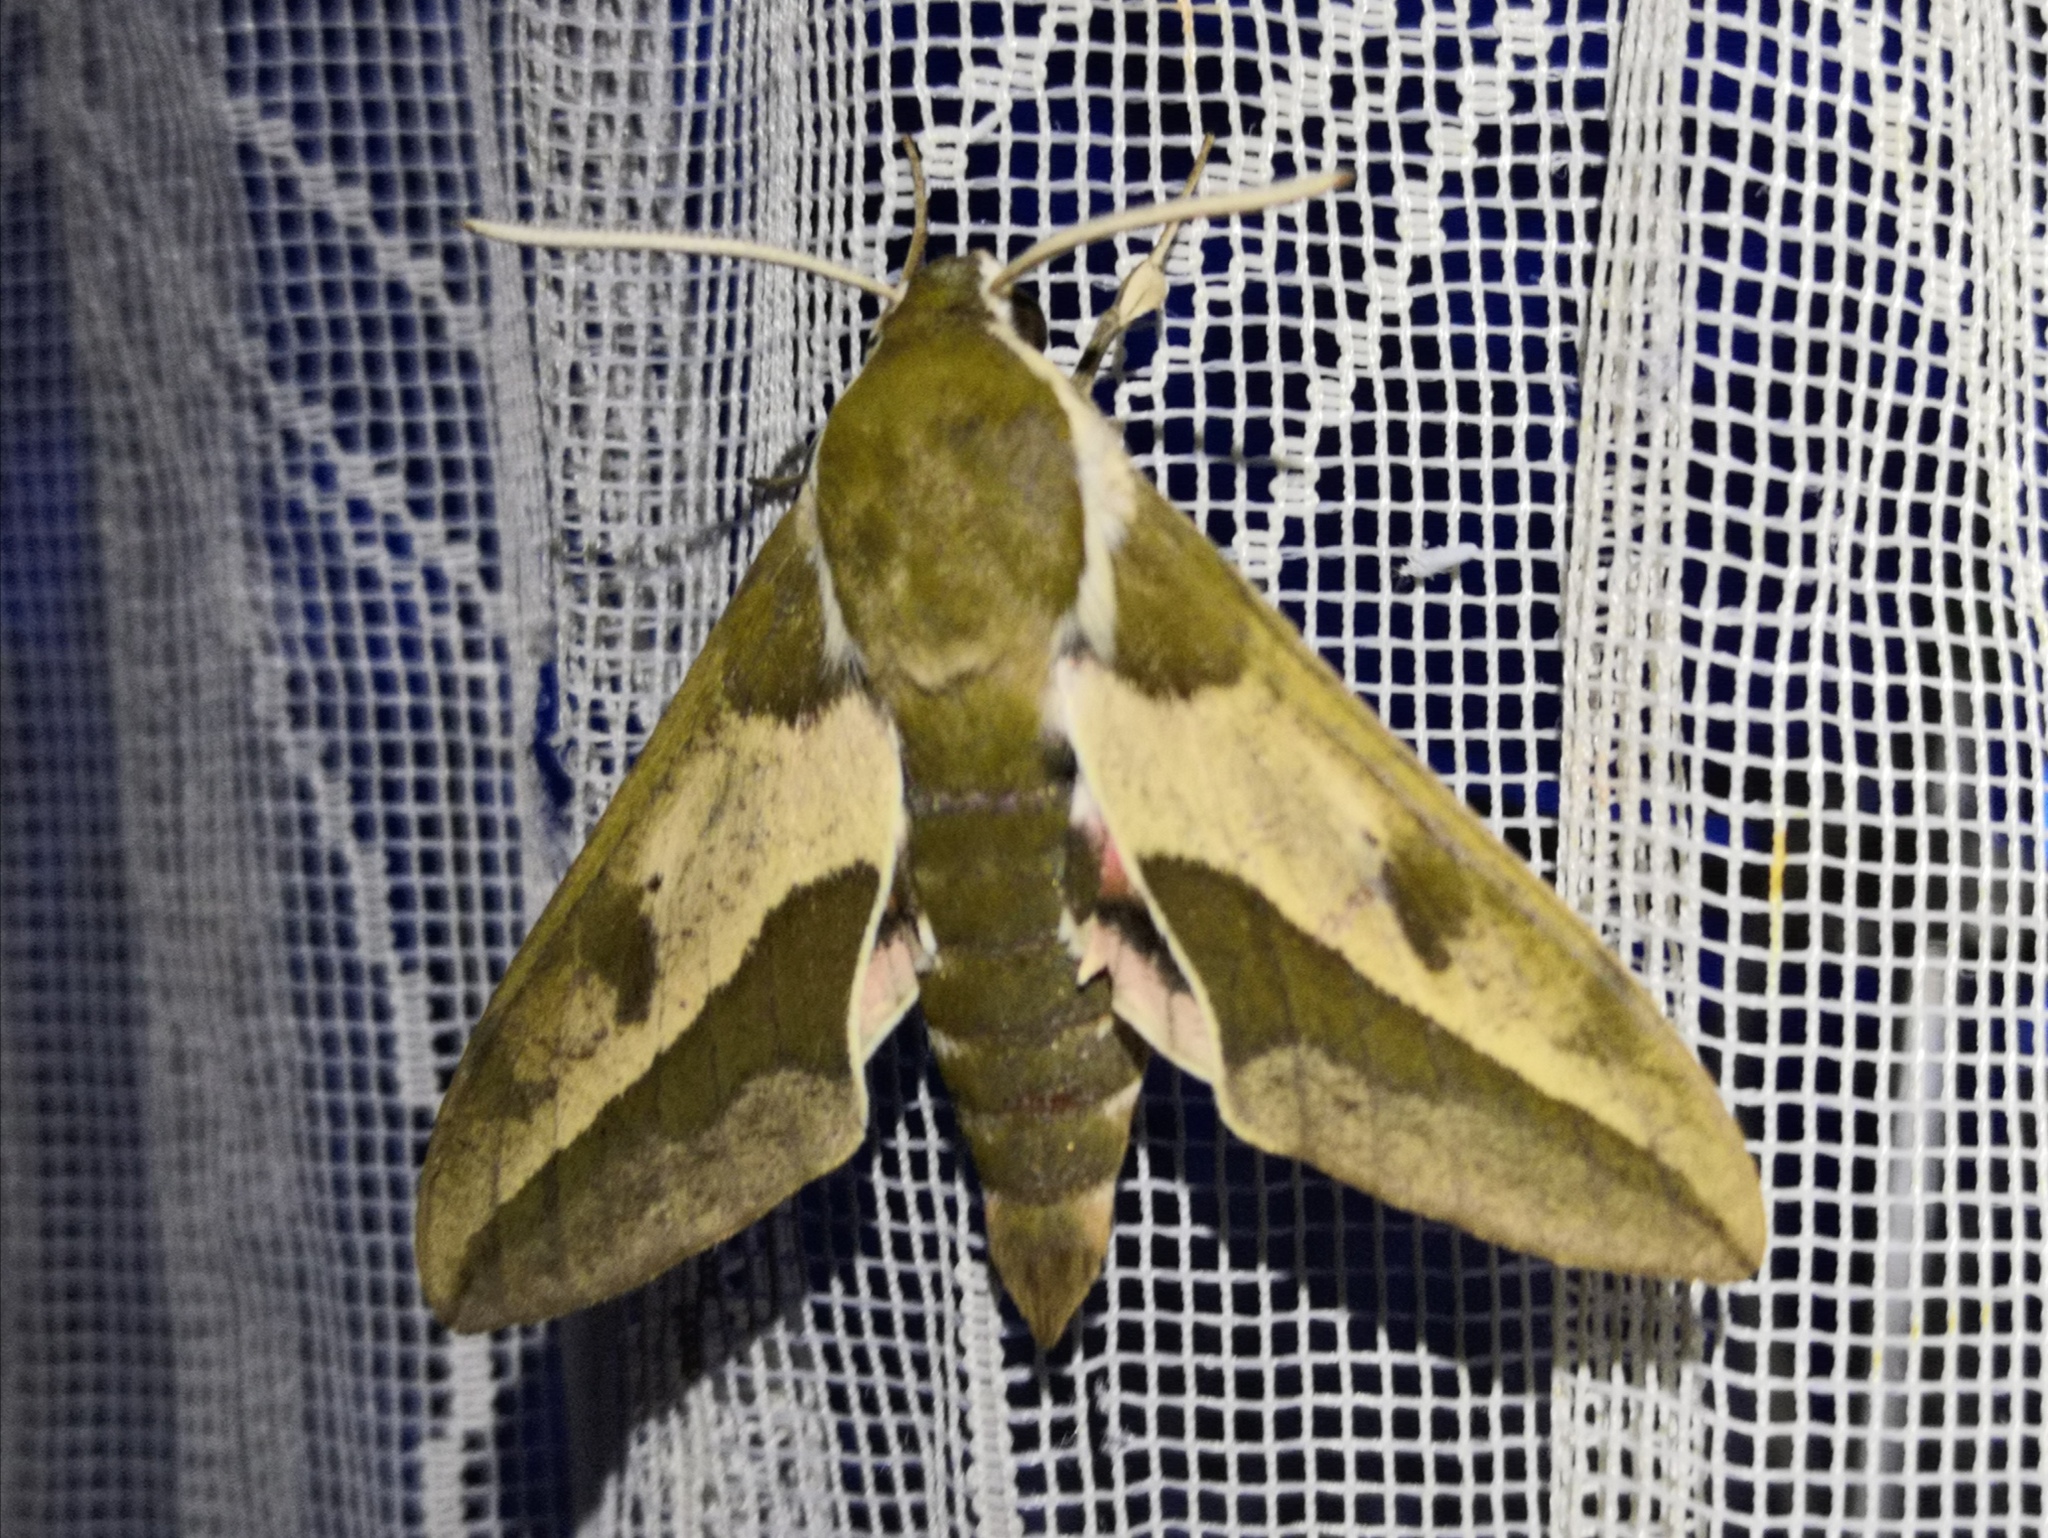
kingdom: Animalia
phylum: Arthropoda
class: Insecta
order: Lepidoptera
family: Sphingidae
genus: Hyles
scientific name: Hyles euphorbiae
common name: Spurge hawk-moth
